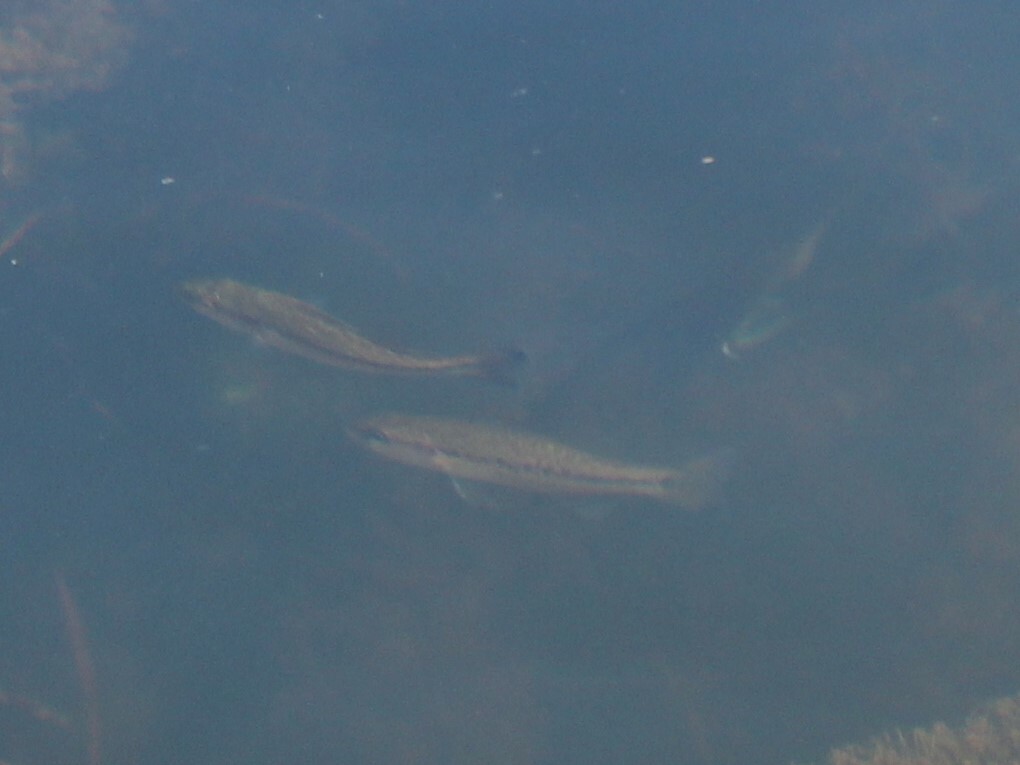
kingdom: Animalia
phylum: Chordata
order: Perciformes
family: Centrarchidae
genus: Micropterus
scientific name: Micropterus
